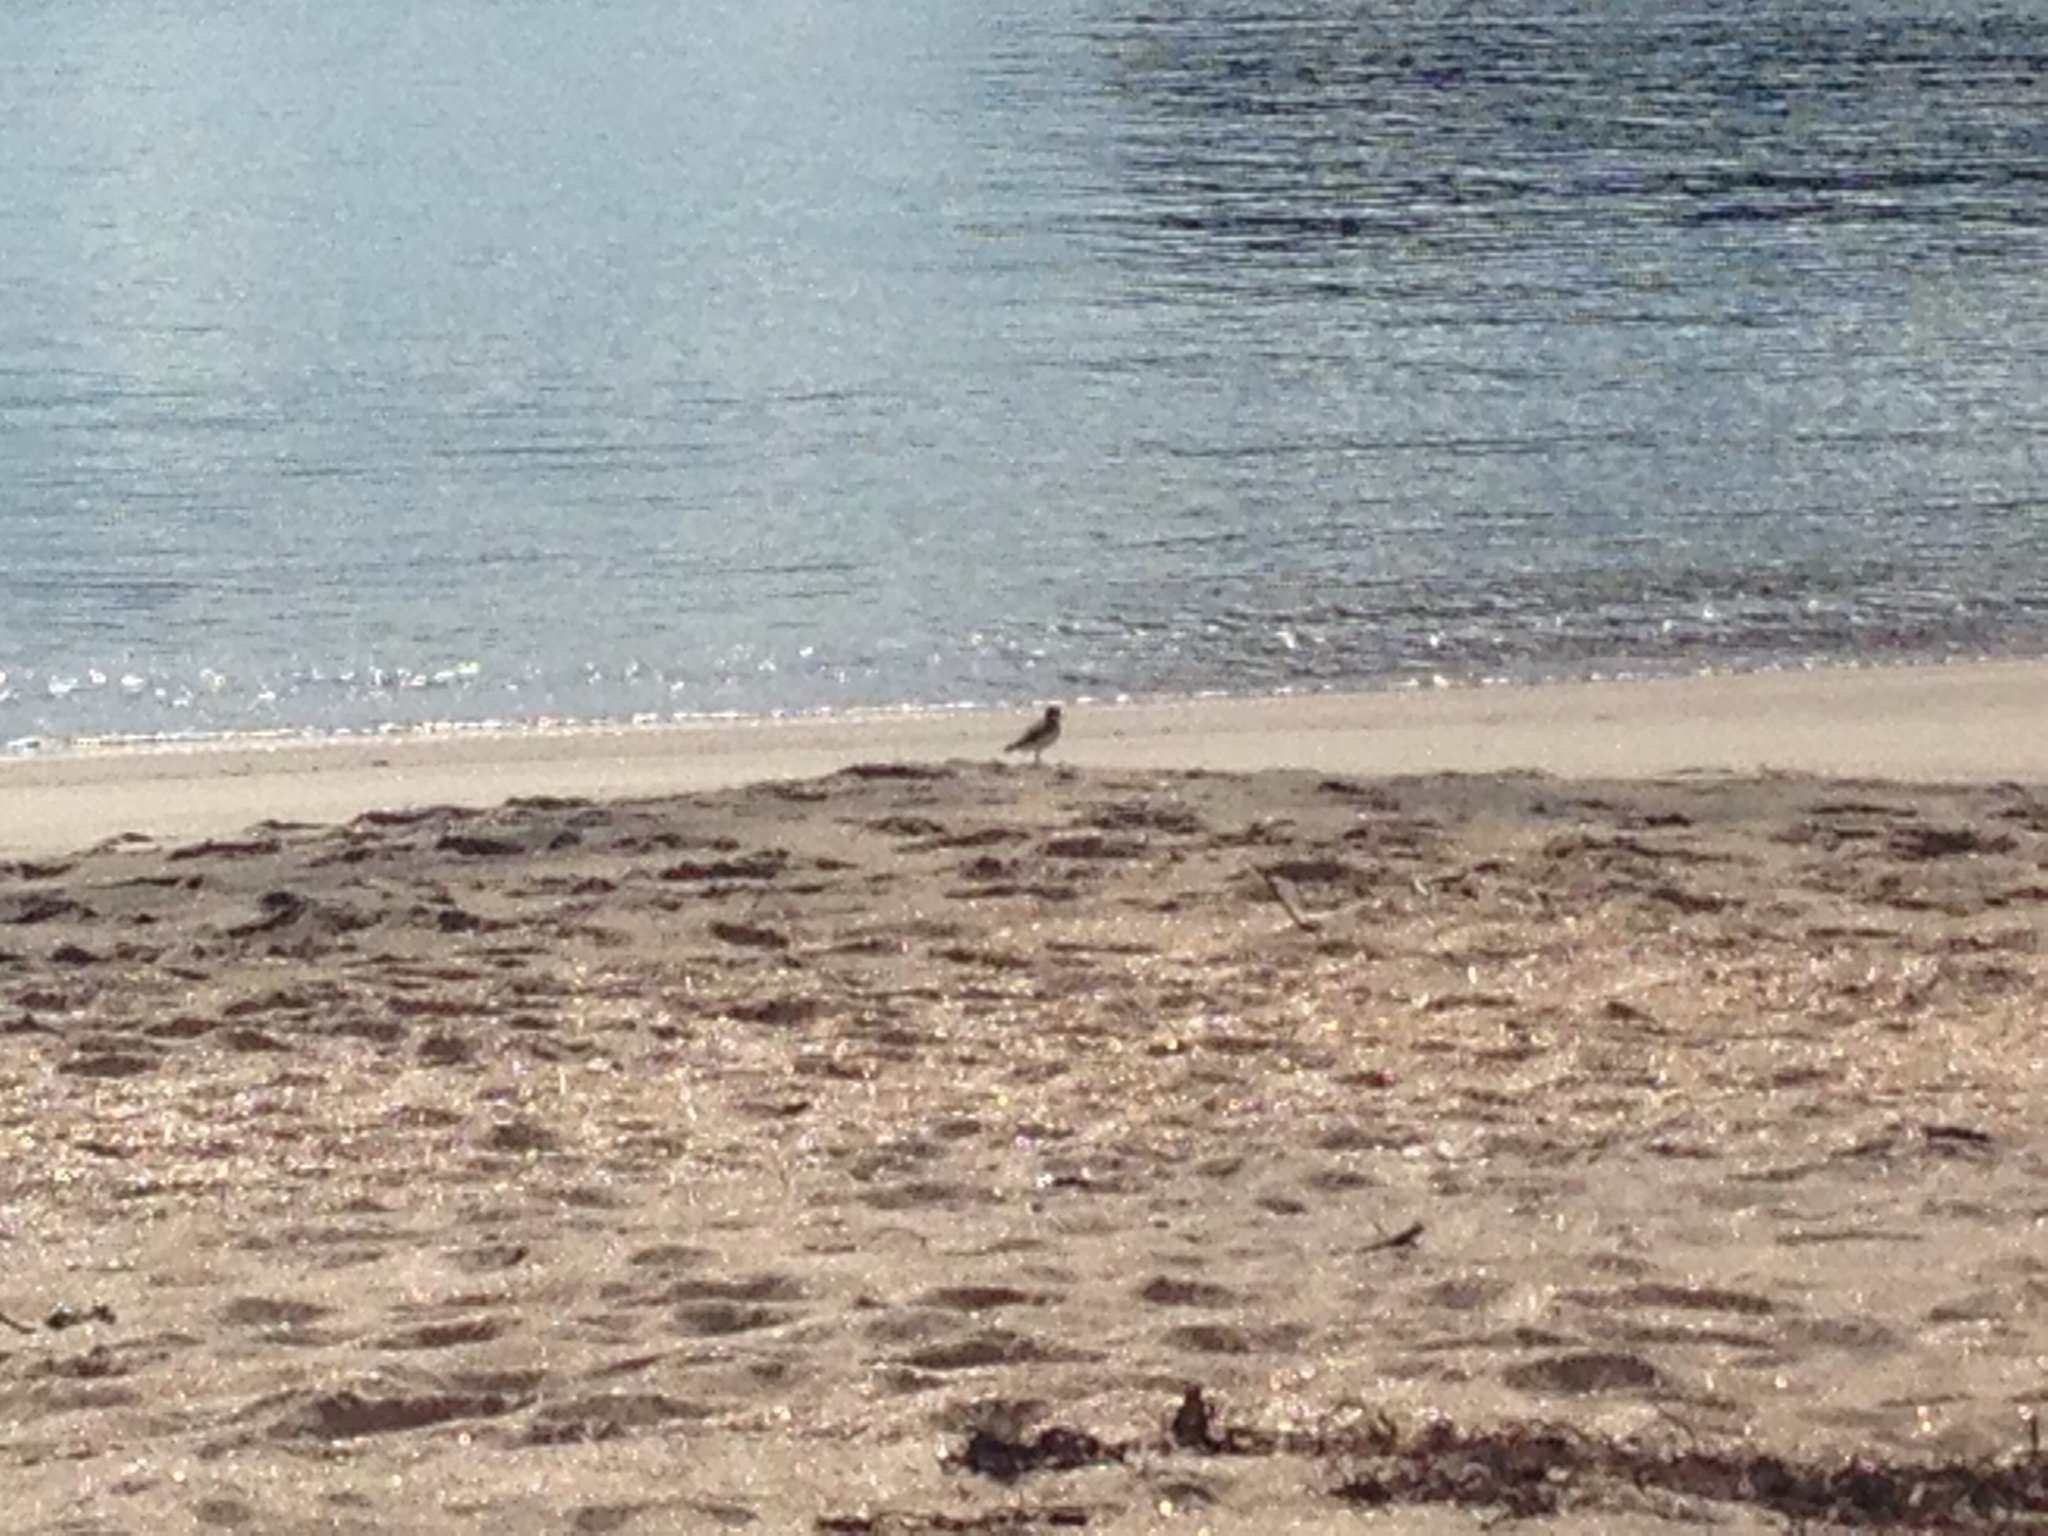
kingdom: Animalia
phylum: Chordata
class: Aves
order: Charadriiformes
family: Charadriidae
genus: Anarhynchus
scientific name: Anarhynchus
